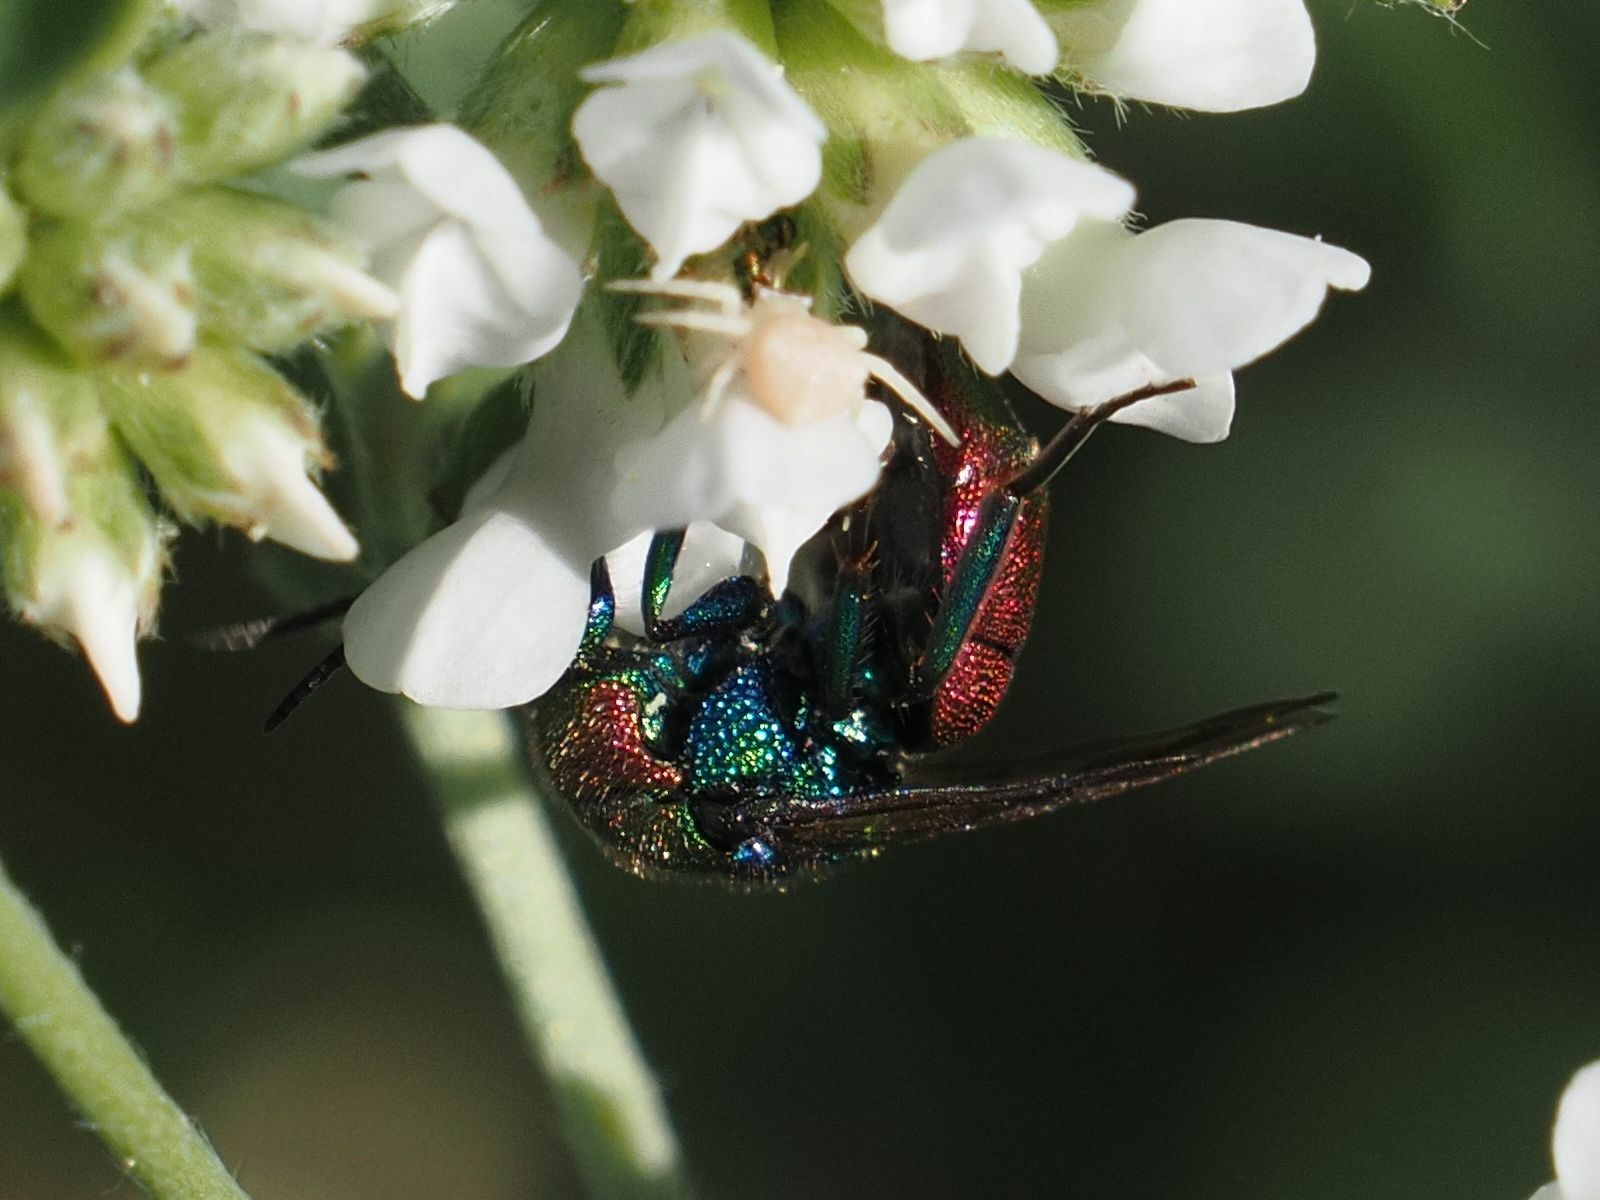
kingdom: Animalia
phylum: Arthropoda
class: Insecta
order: Hymenoptera
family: Chrysididae
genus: Hedychrum
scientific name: Hedychrum rutilans
